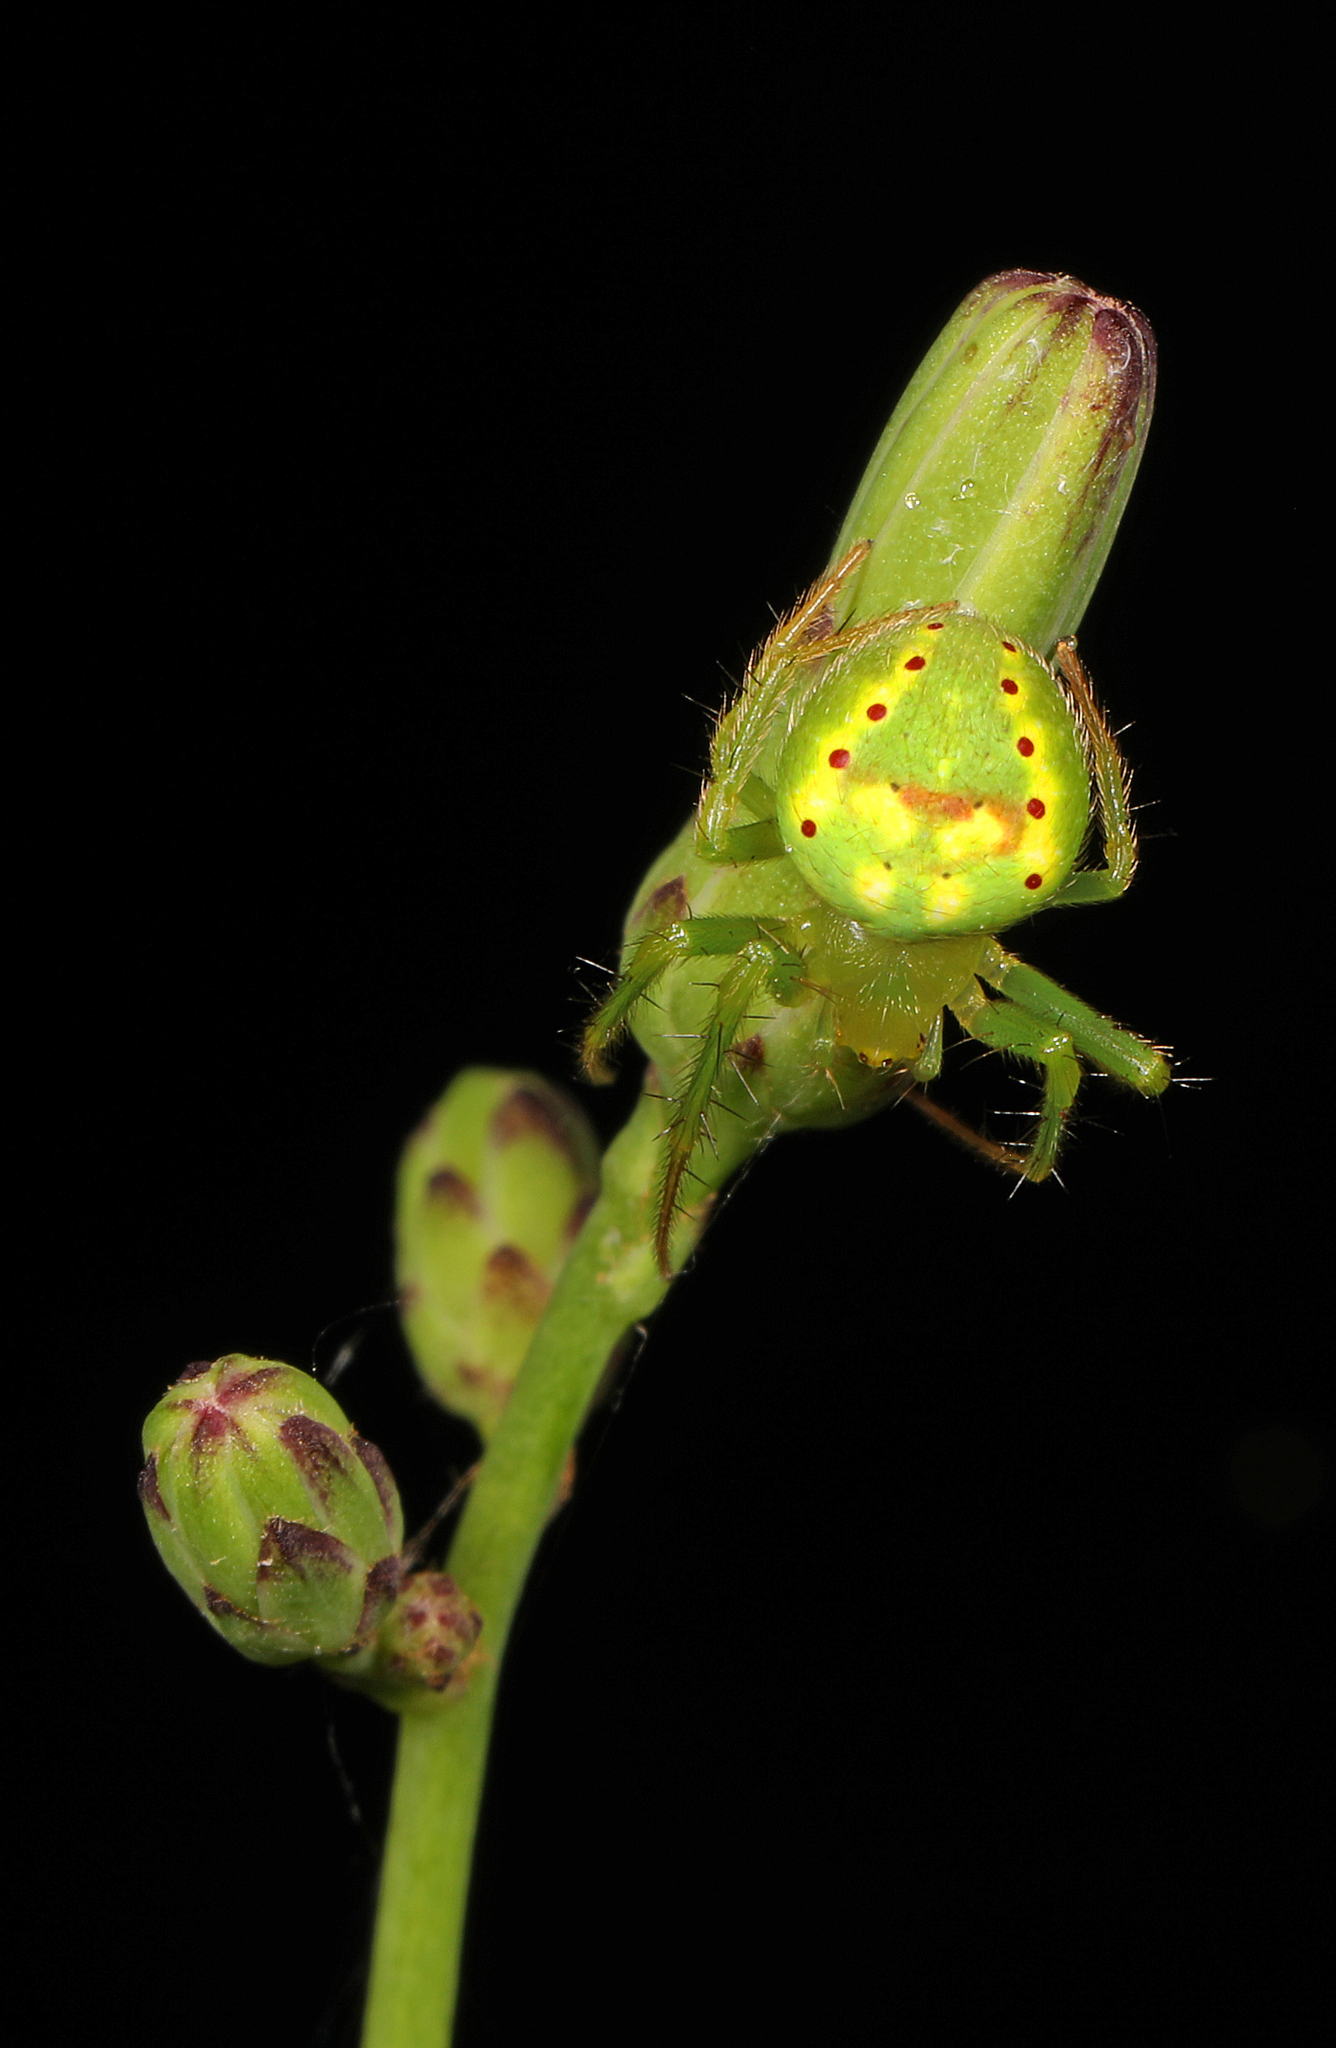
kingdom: Animalia
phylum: Arthropoda
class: Arachnida
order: Araneae
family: Araneidae
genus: Araneus
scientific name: Araneus cingulatus
